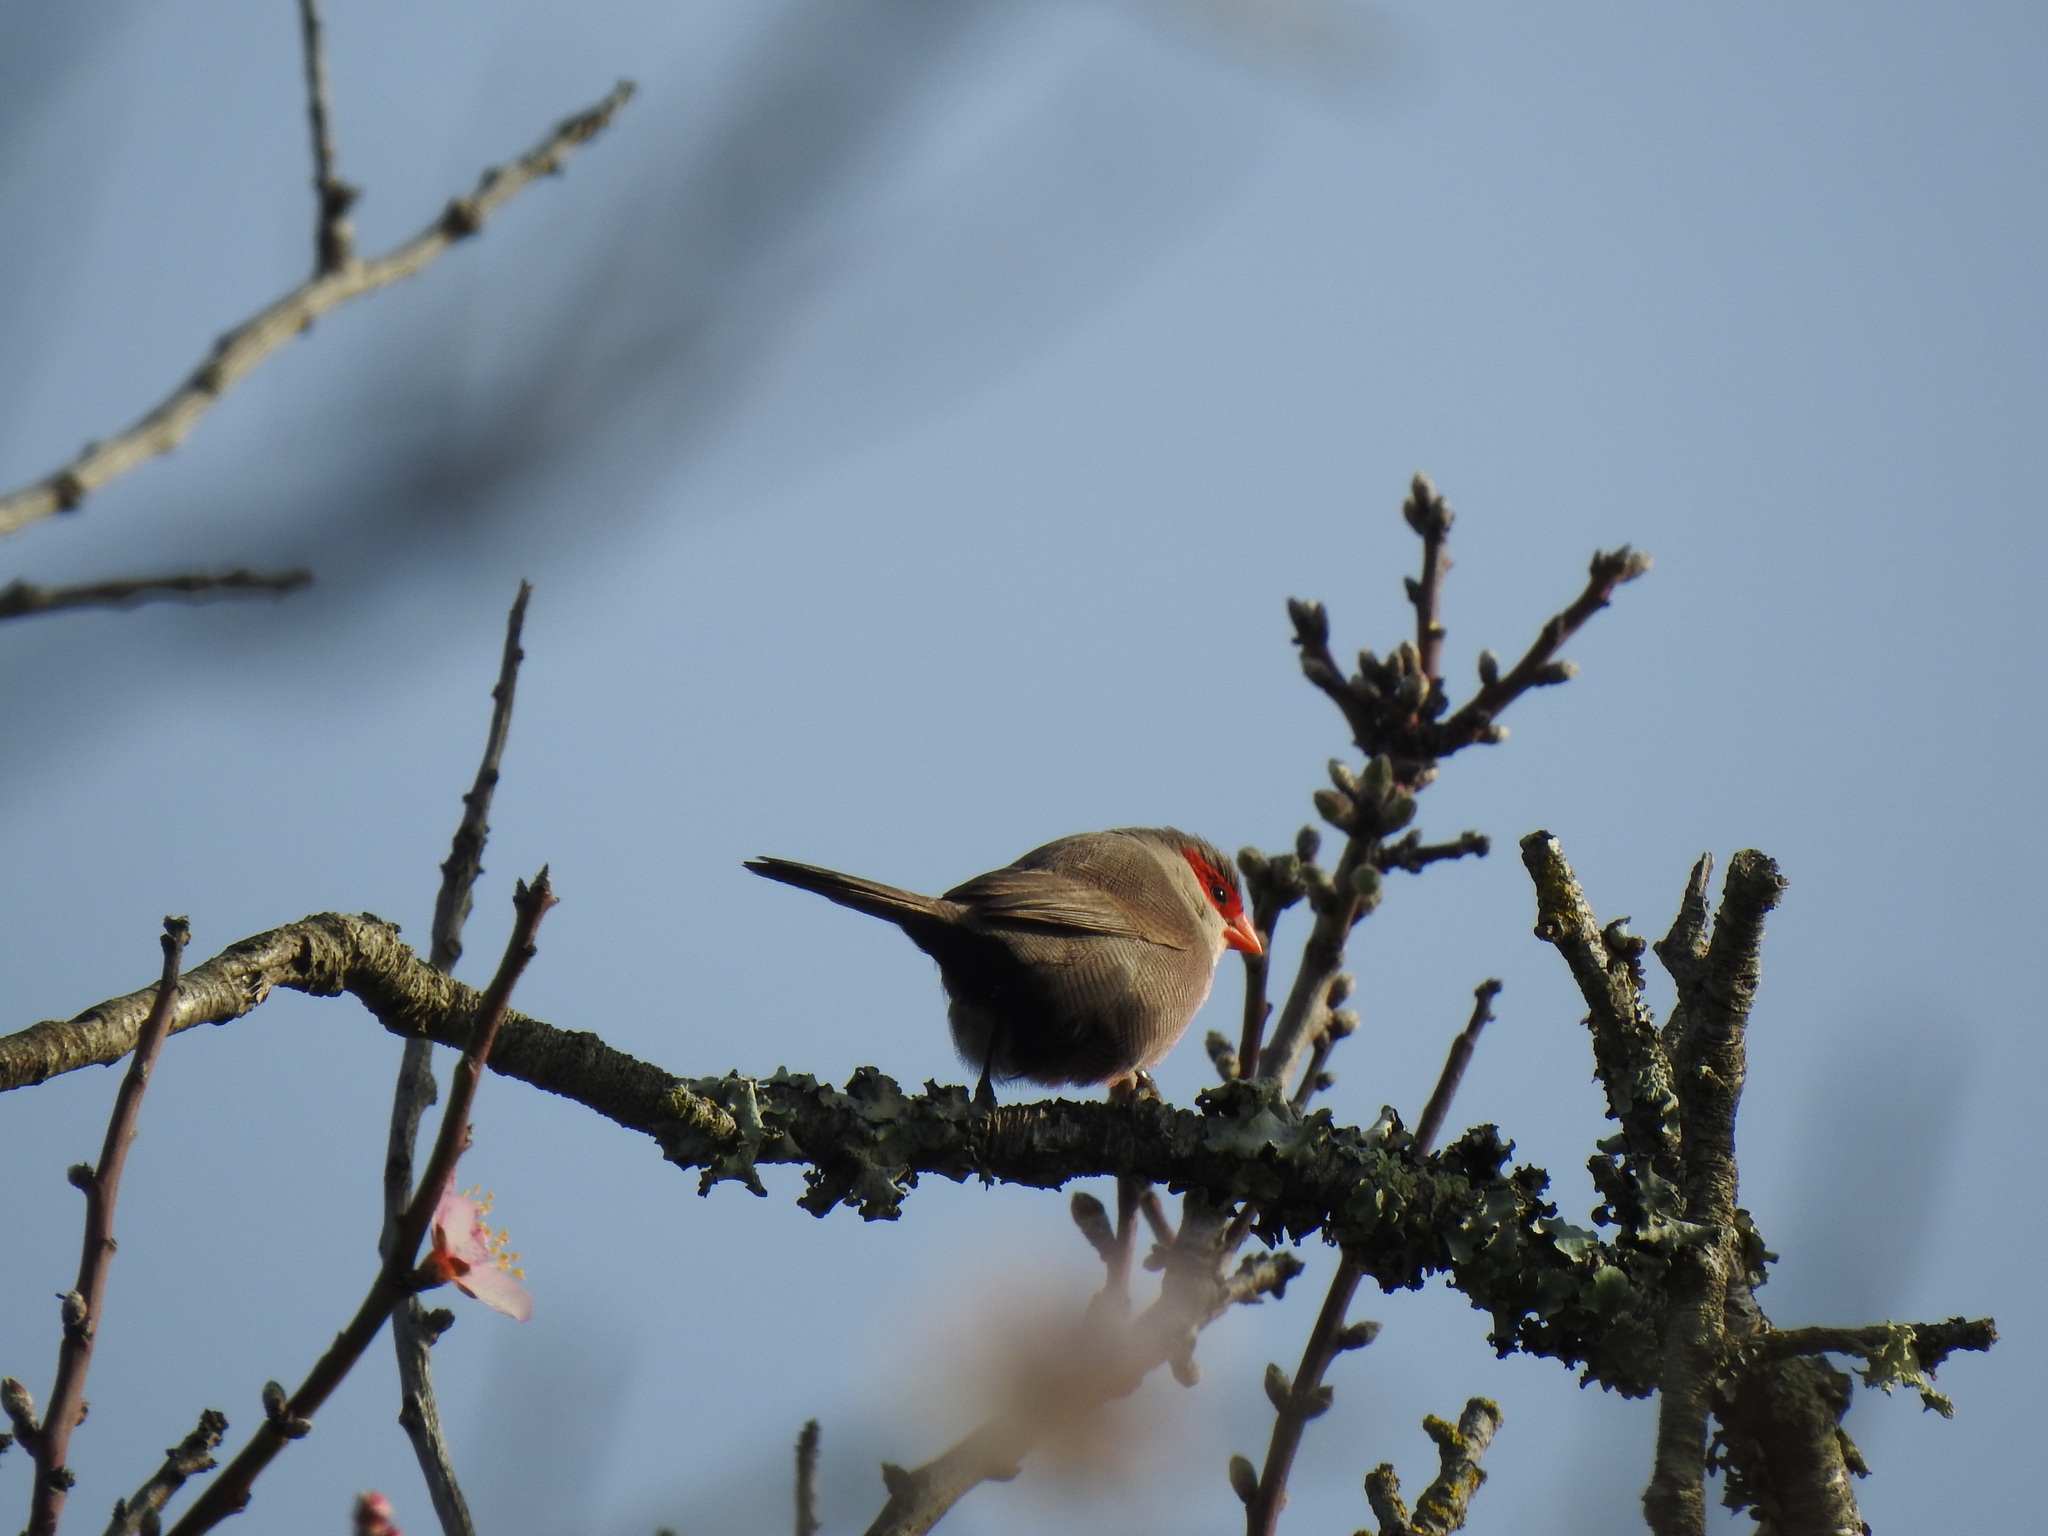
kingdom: Animalia
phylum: Chordata
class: Aves
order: Passeriformes
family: Estrildidae
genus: Estrilda
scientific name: Estrilda astrild
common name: Common waxbill
